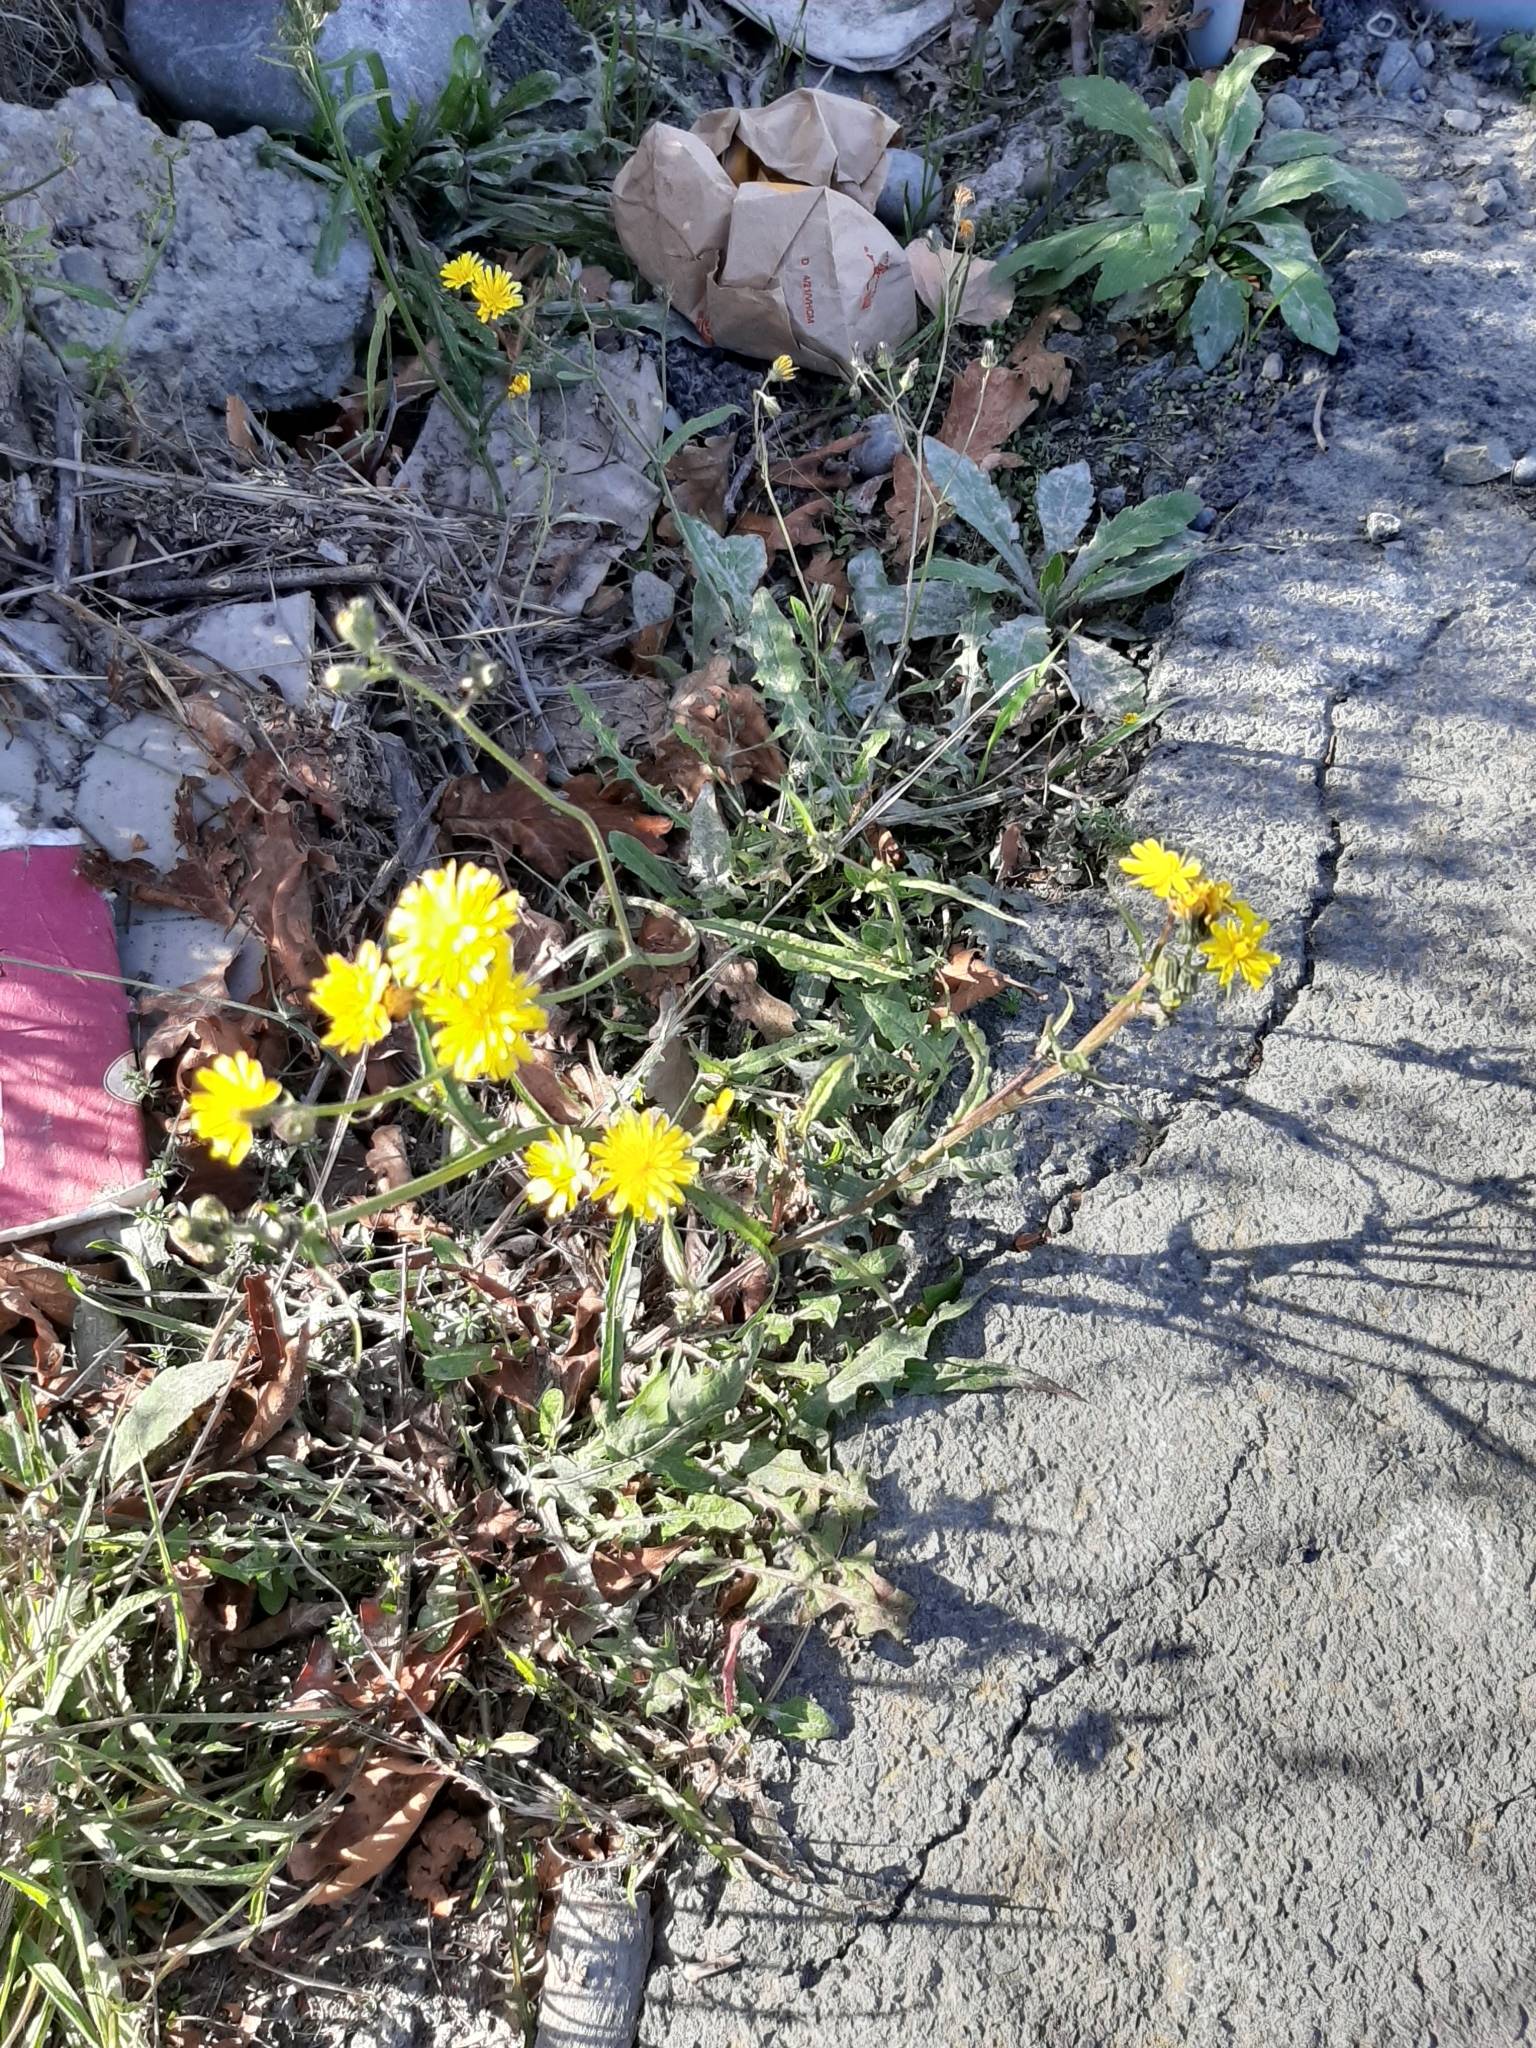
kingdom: Plantae
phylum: Tracheophyta
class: Magnoliopsida
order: Asterales
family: Asteraceae
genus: Crepis
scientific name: Crepis capillaris
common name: Smooth hawksbeard
